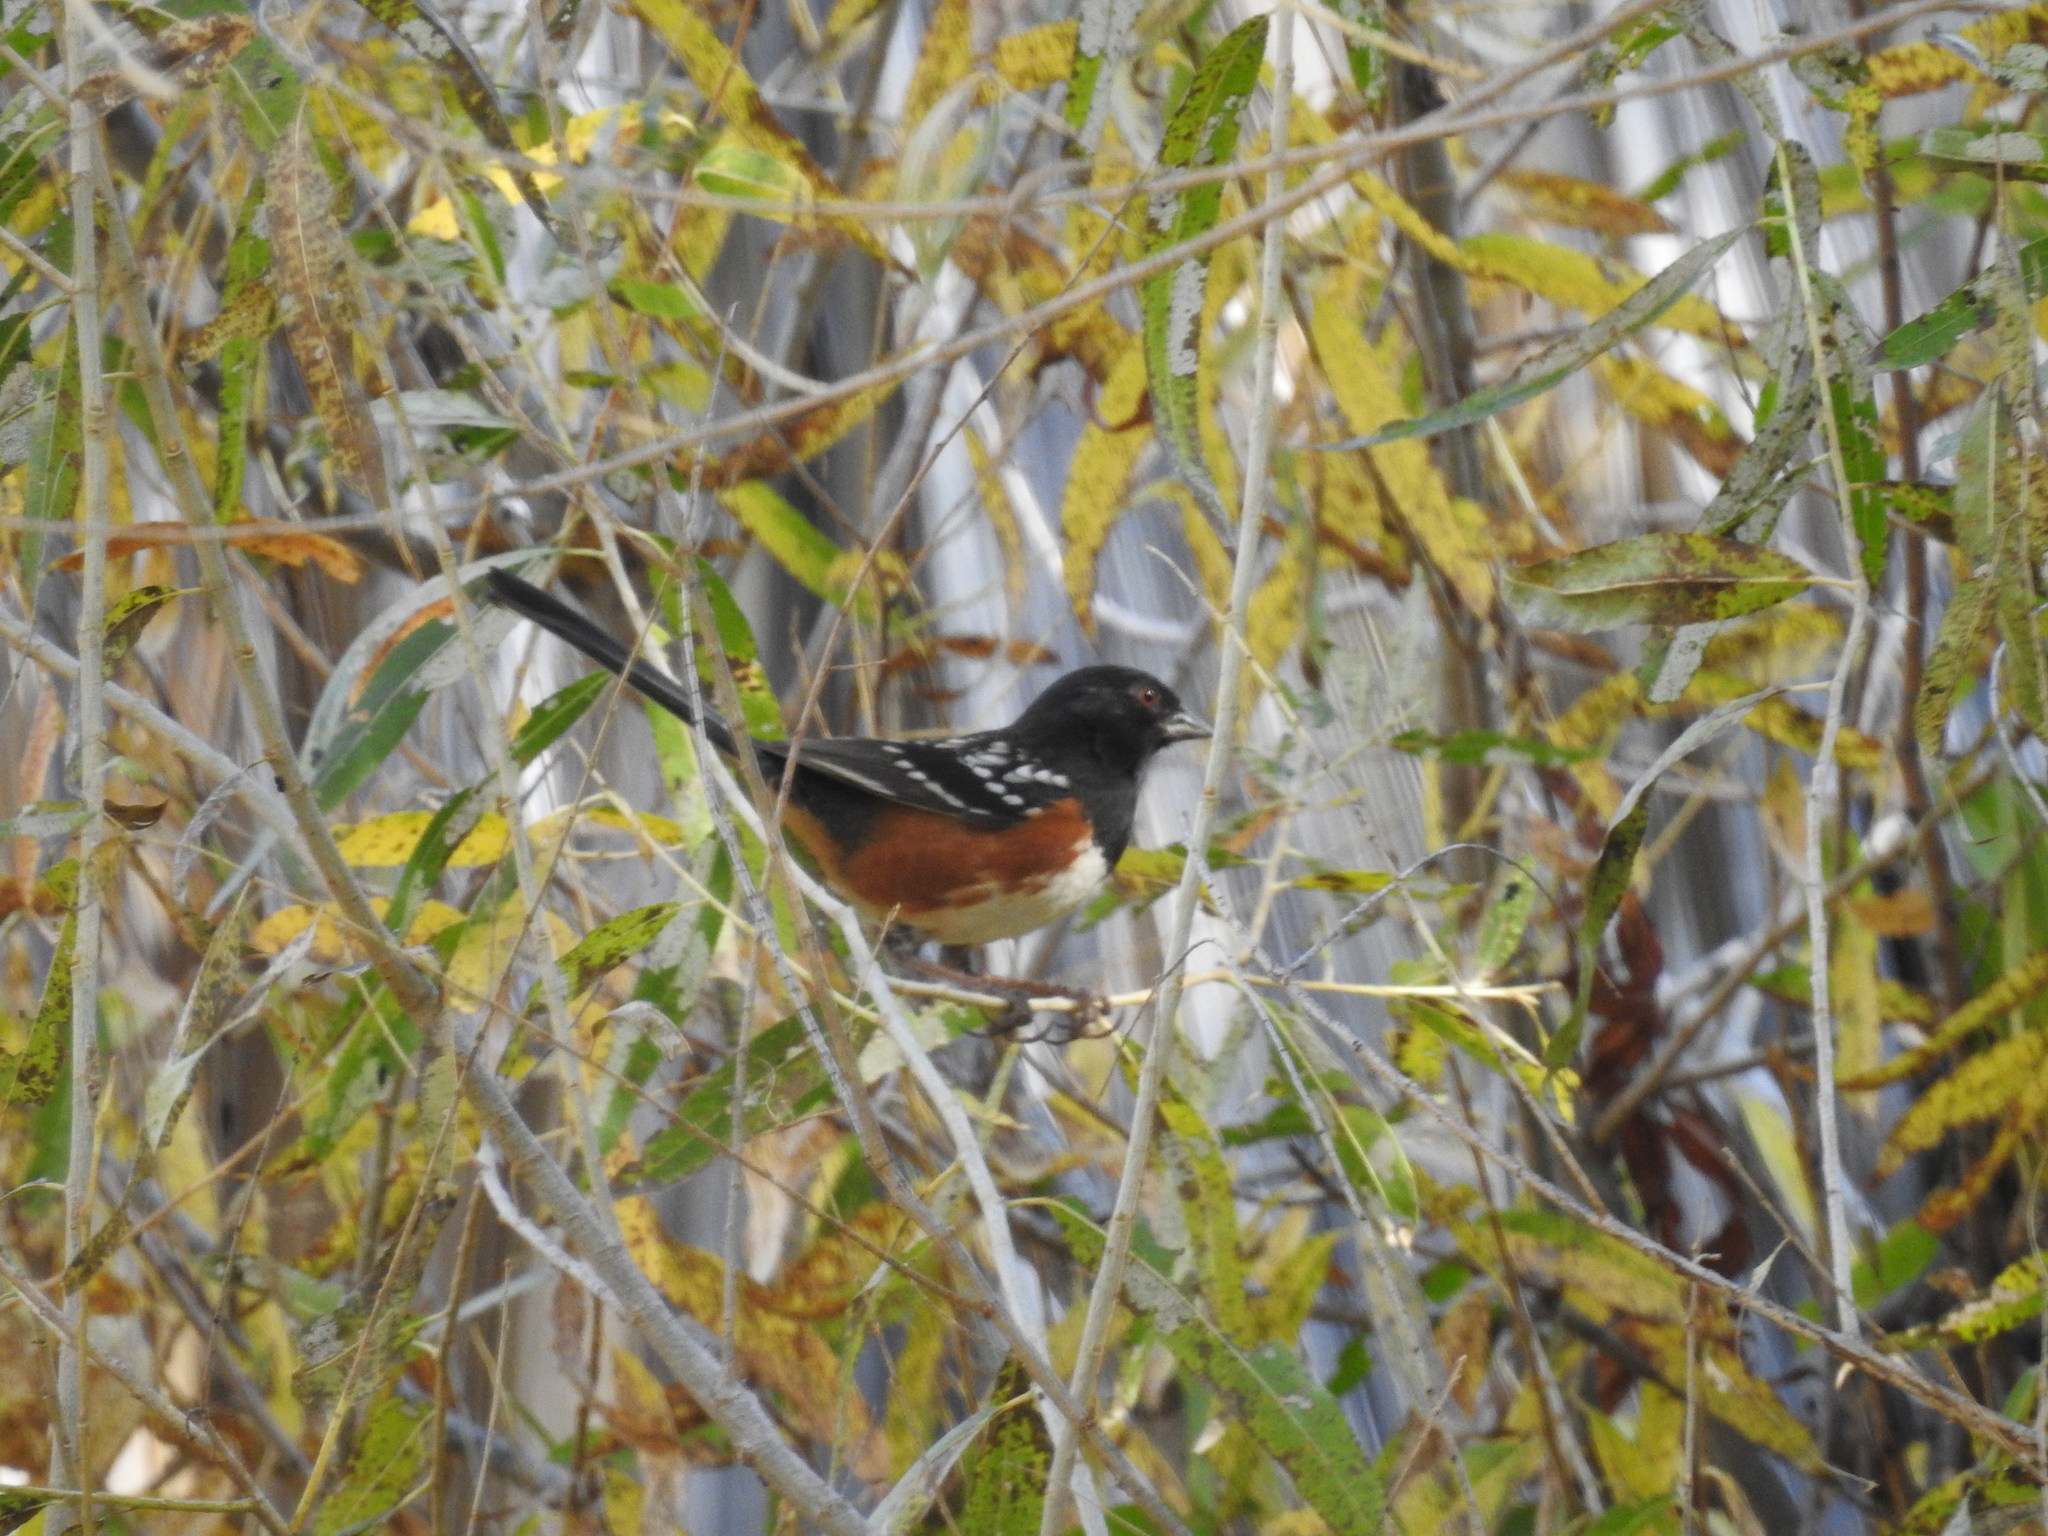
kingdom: Animalia
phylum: Chordata
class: Aves
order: Passeriformes
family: Passerellidae
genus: Pipilo
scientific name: Pipilo maculatus
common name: Spotted towhee
